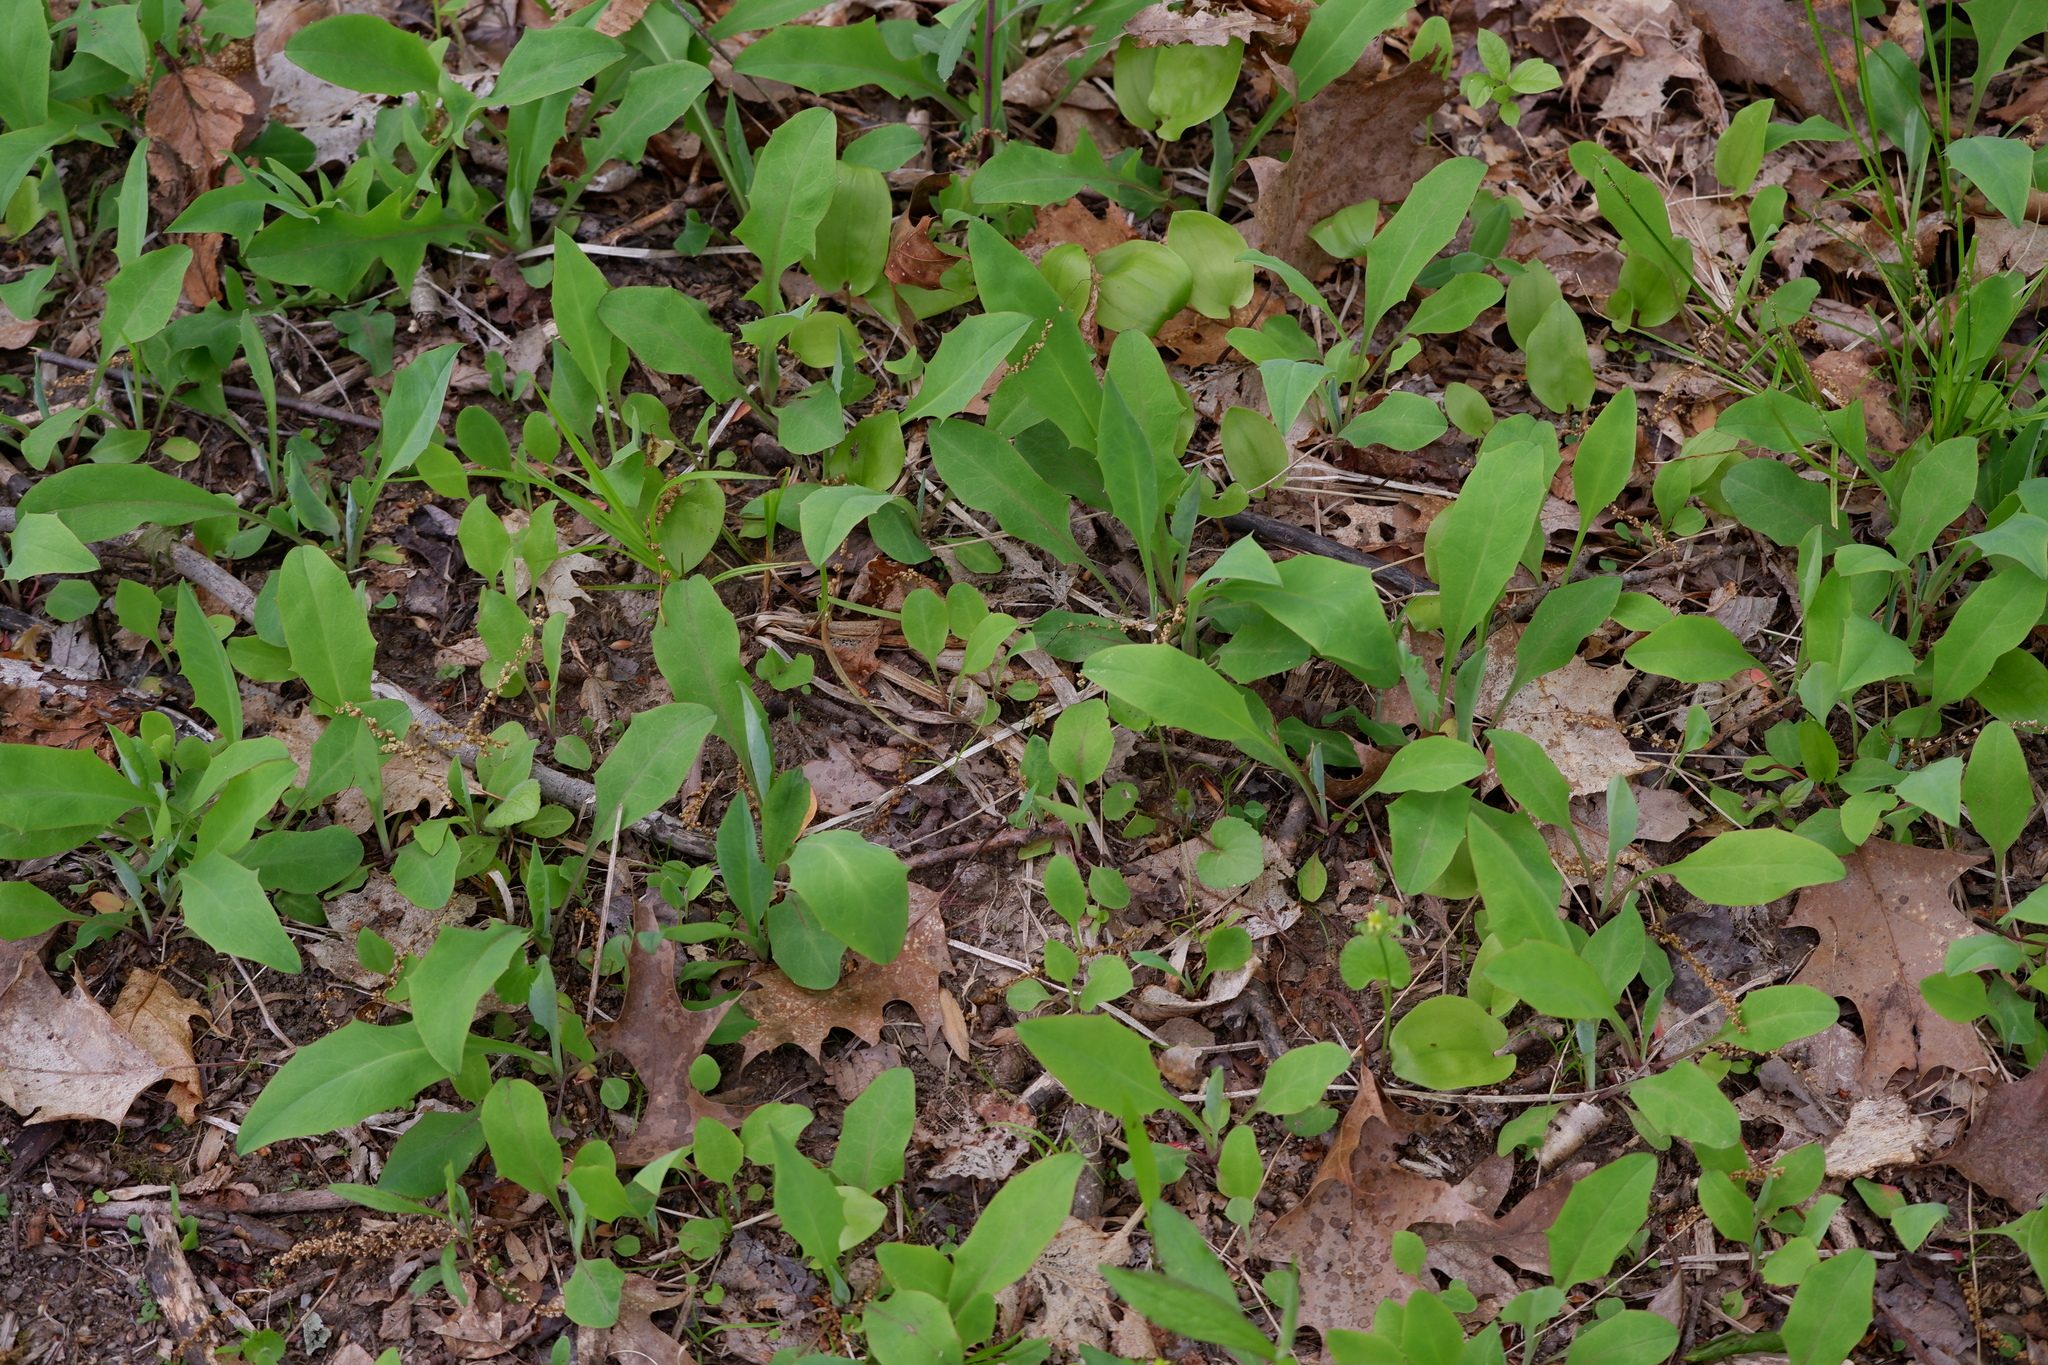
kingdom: Plantae
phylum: Tracheophyta
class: Magnoliopsida
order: Asterales
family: Asteraceae
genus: Krigia
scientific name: Krigia biflora
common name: Orange dwarf-dandelion
